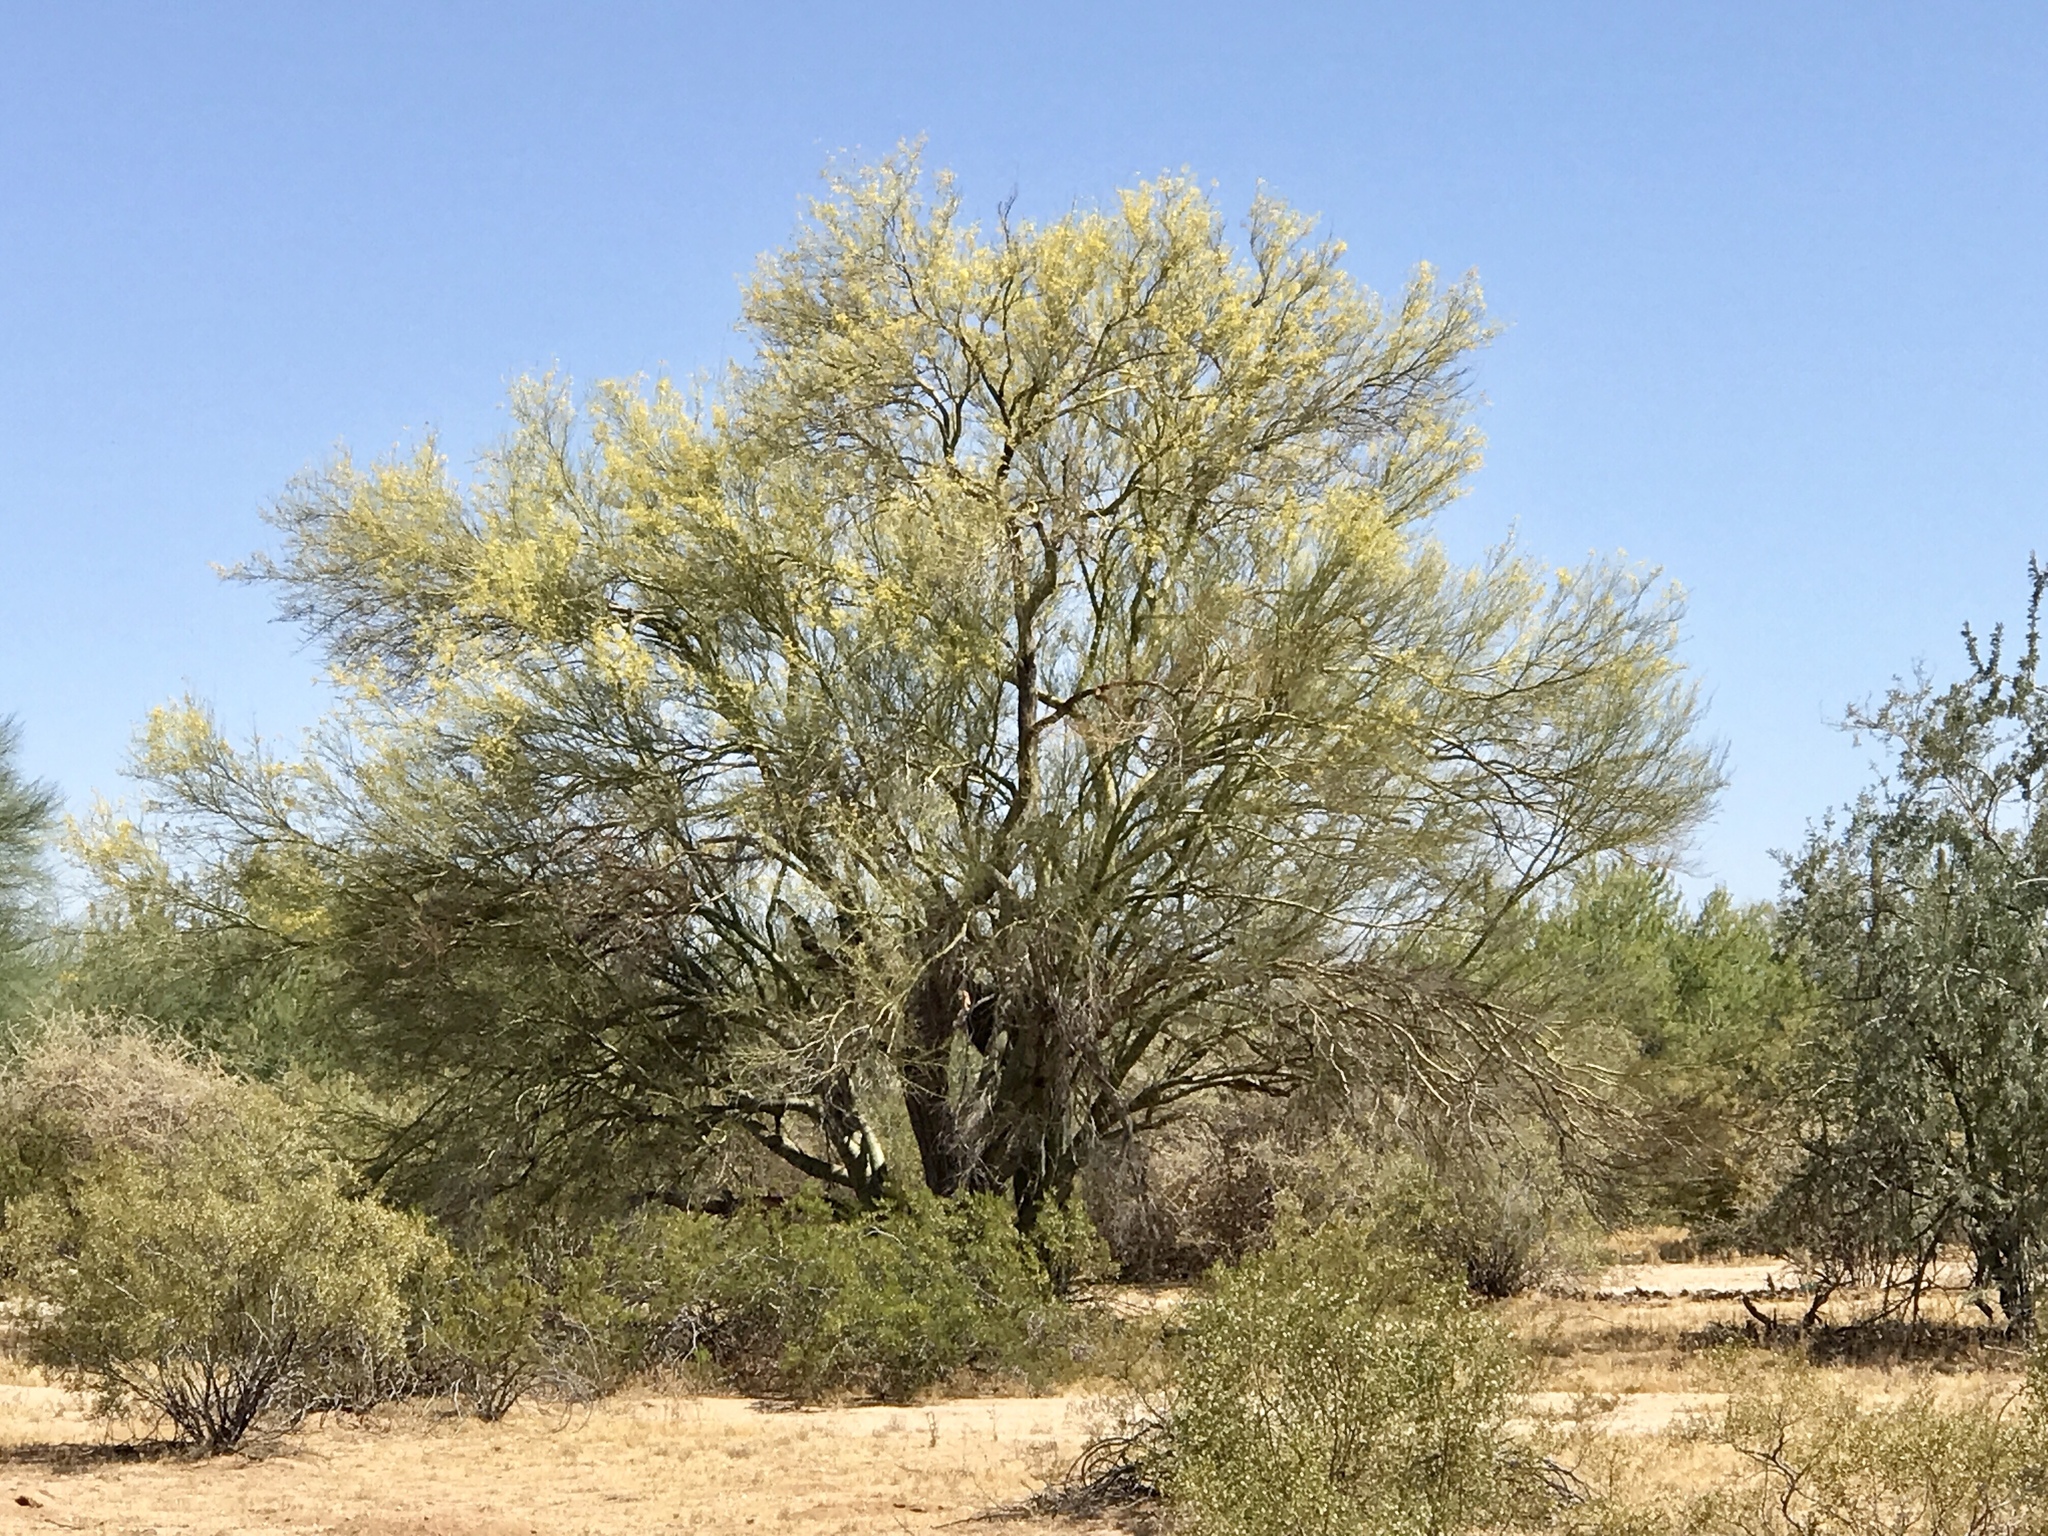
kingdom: Plantae
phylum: Tracheophyta
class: Magnoliopsida
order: Fabales
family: Fabaceae
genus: Parkinsonia
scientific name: Parkinsonia microphylla
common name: Yellow paloverde
